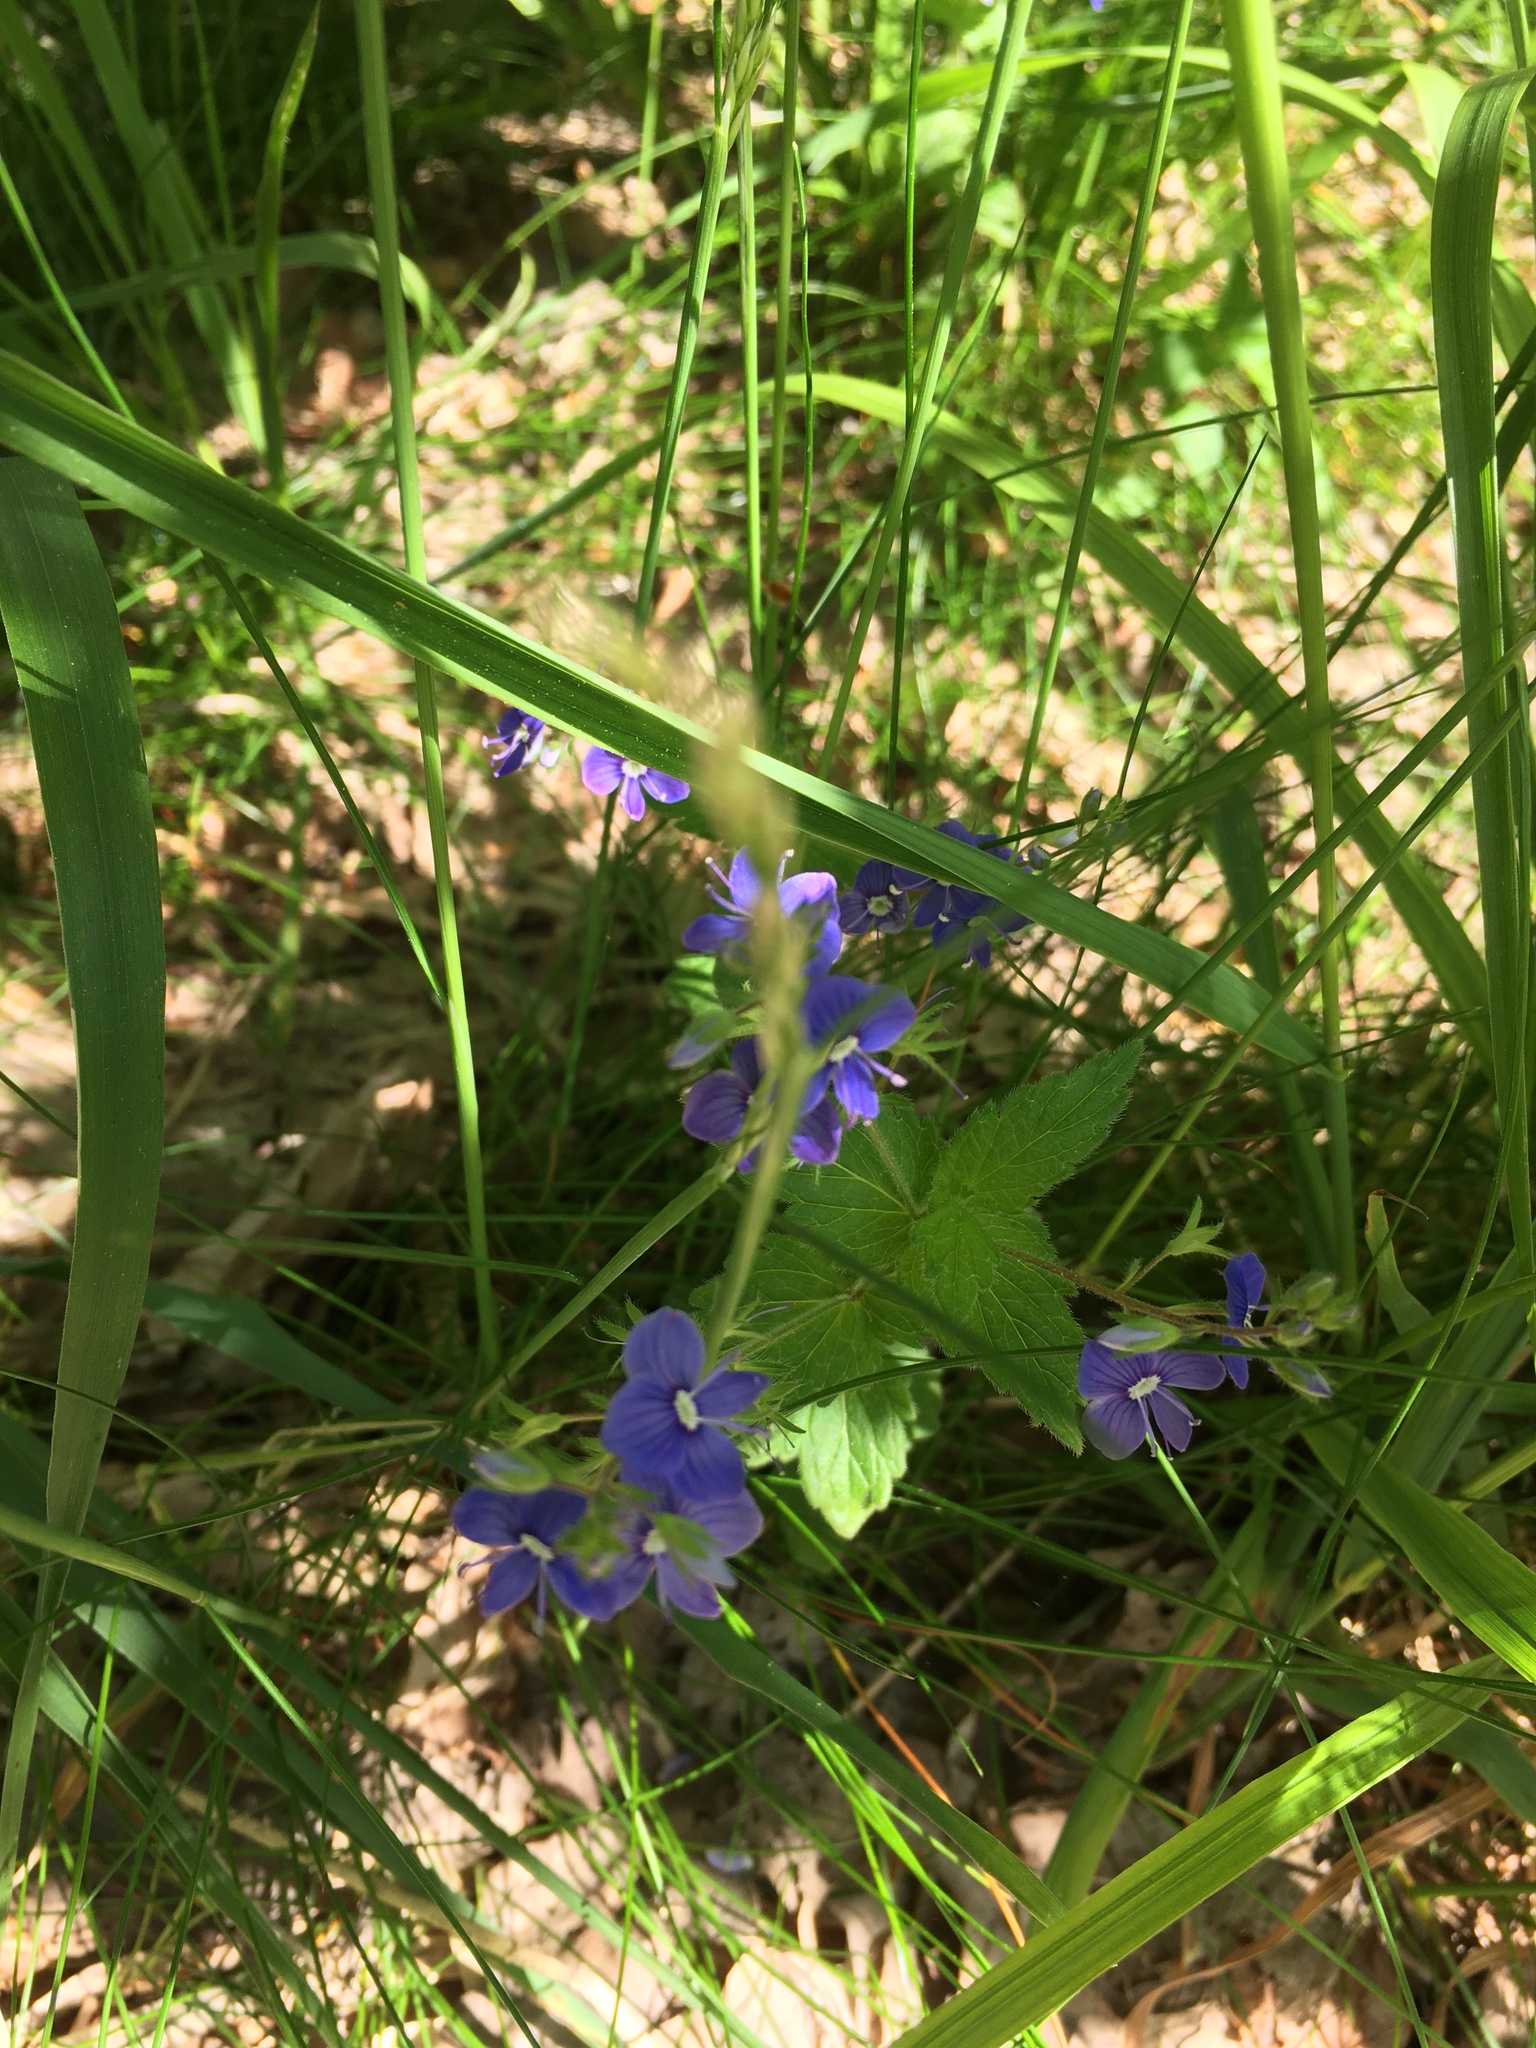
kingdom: Plantae
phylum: Tracheophyta
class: Magnoliopsida
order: Lamiales
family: Plantaginaceae
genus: Veronica
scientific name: Veronica chamaedrys
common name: Germander speedwell
